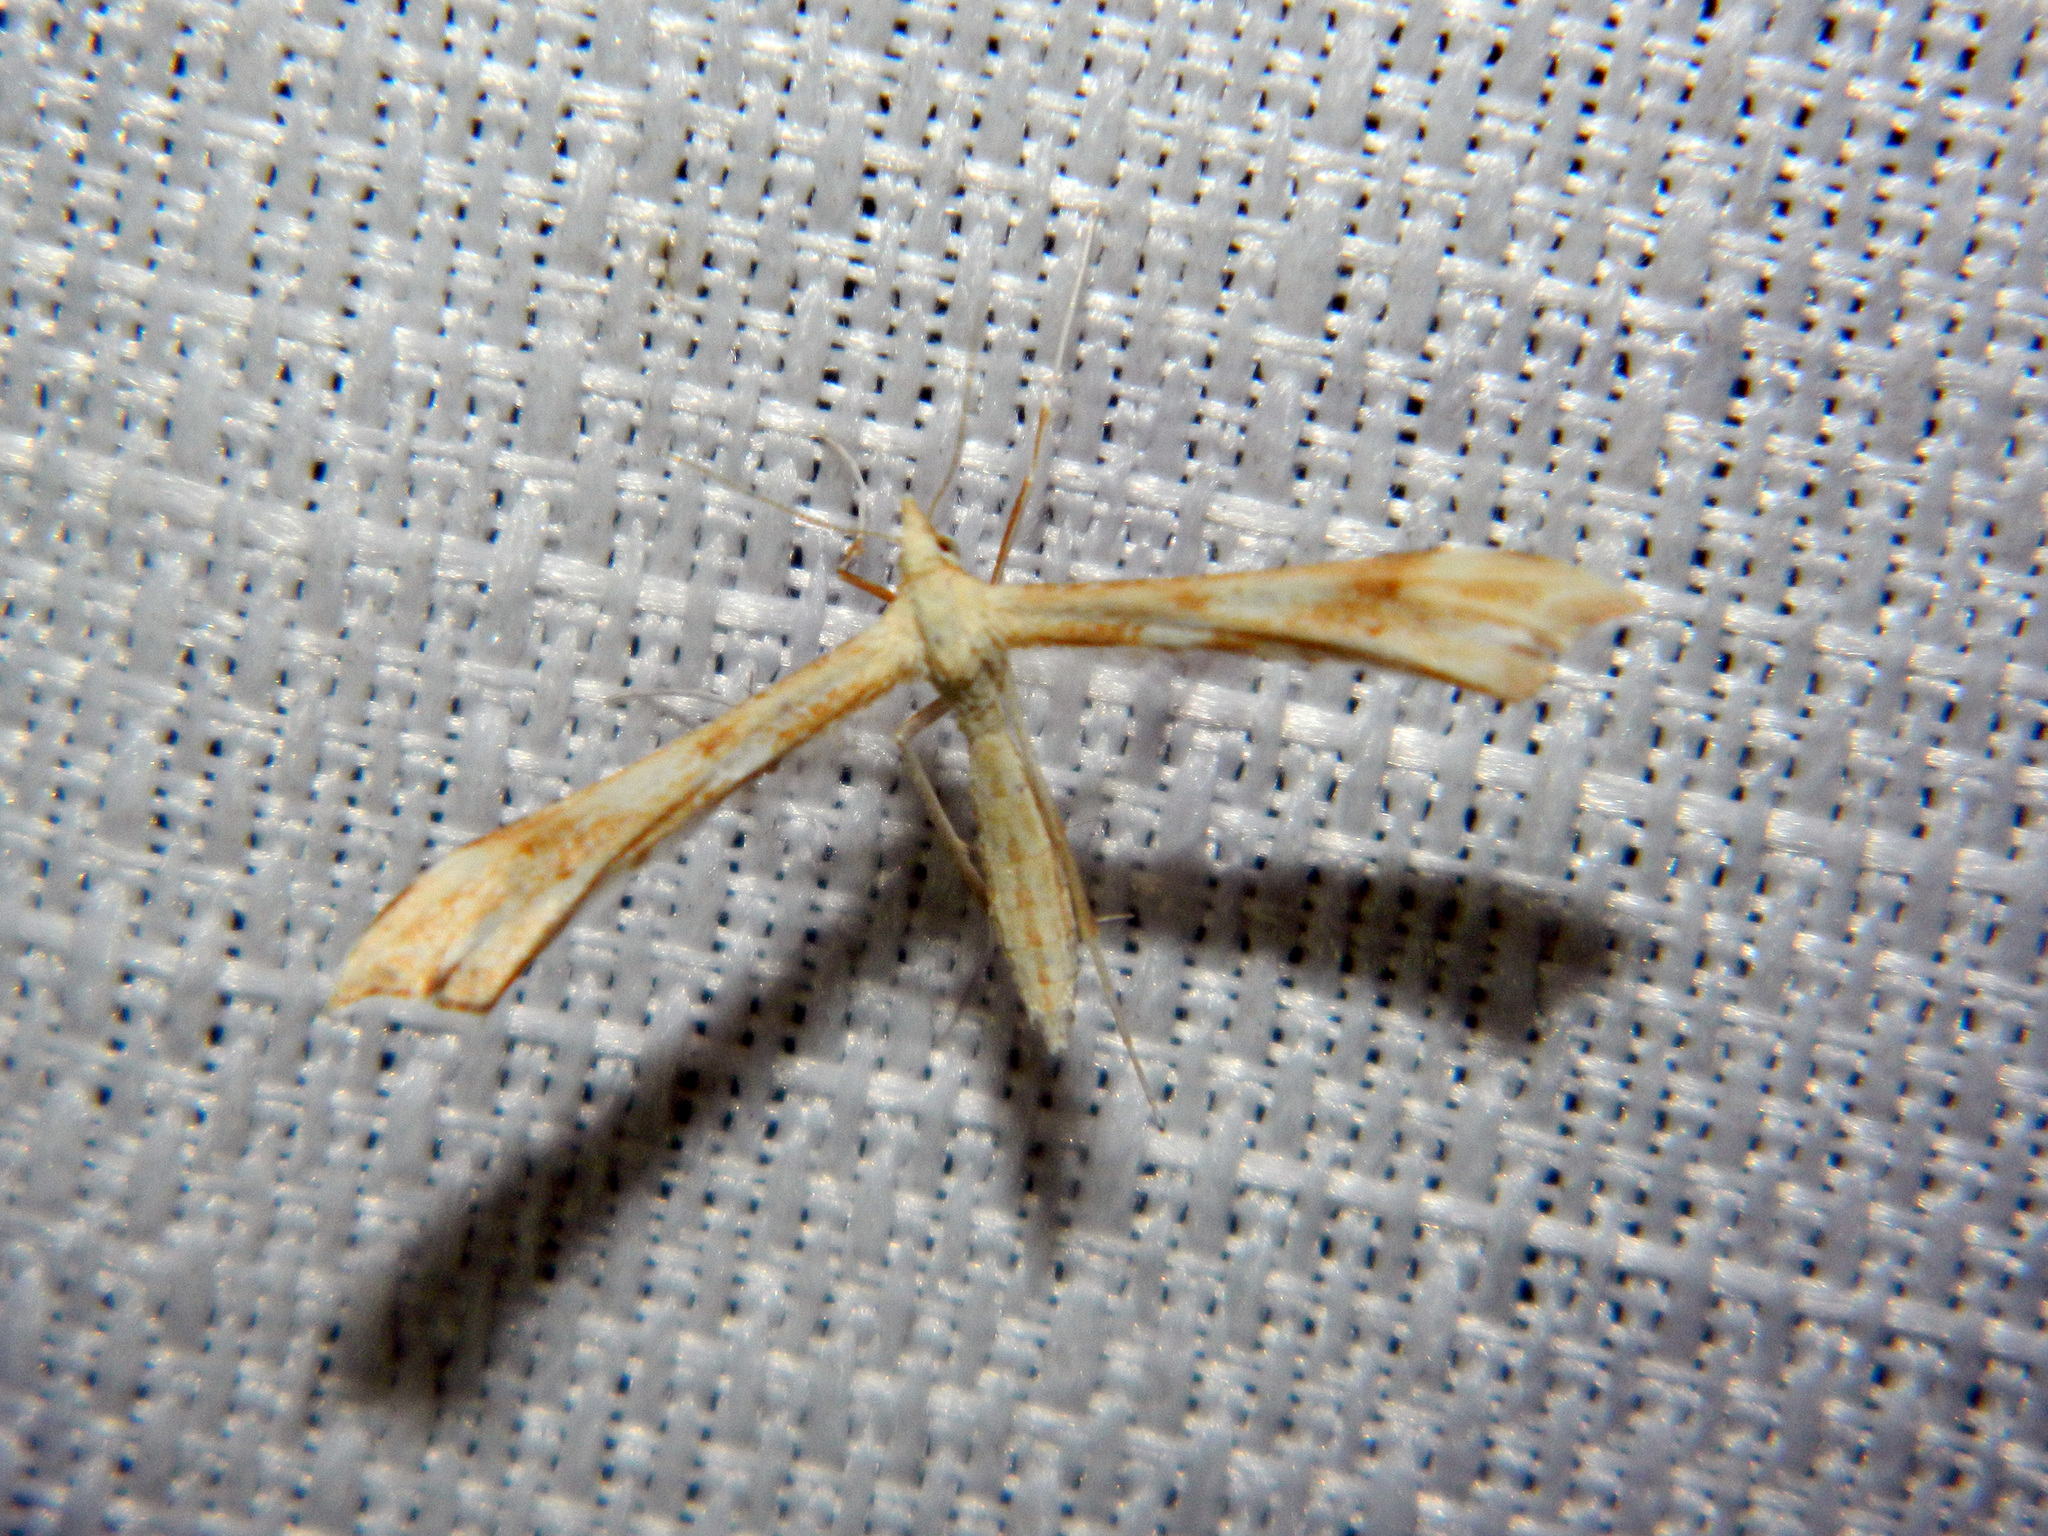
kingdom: Animalia
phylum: Arthropoda
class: Insecta
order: Lepidoptera
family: Pterophoridae
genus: Gillmeria
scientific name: Gillmeria pallidactyla
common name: Yarrow plume
